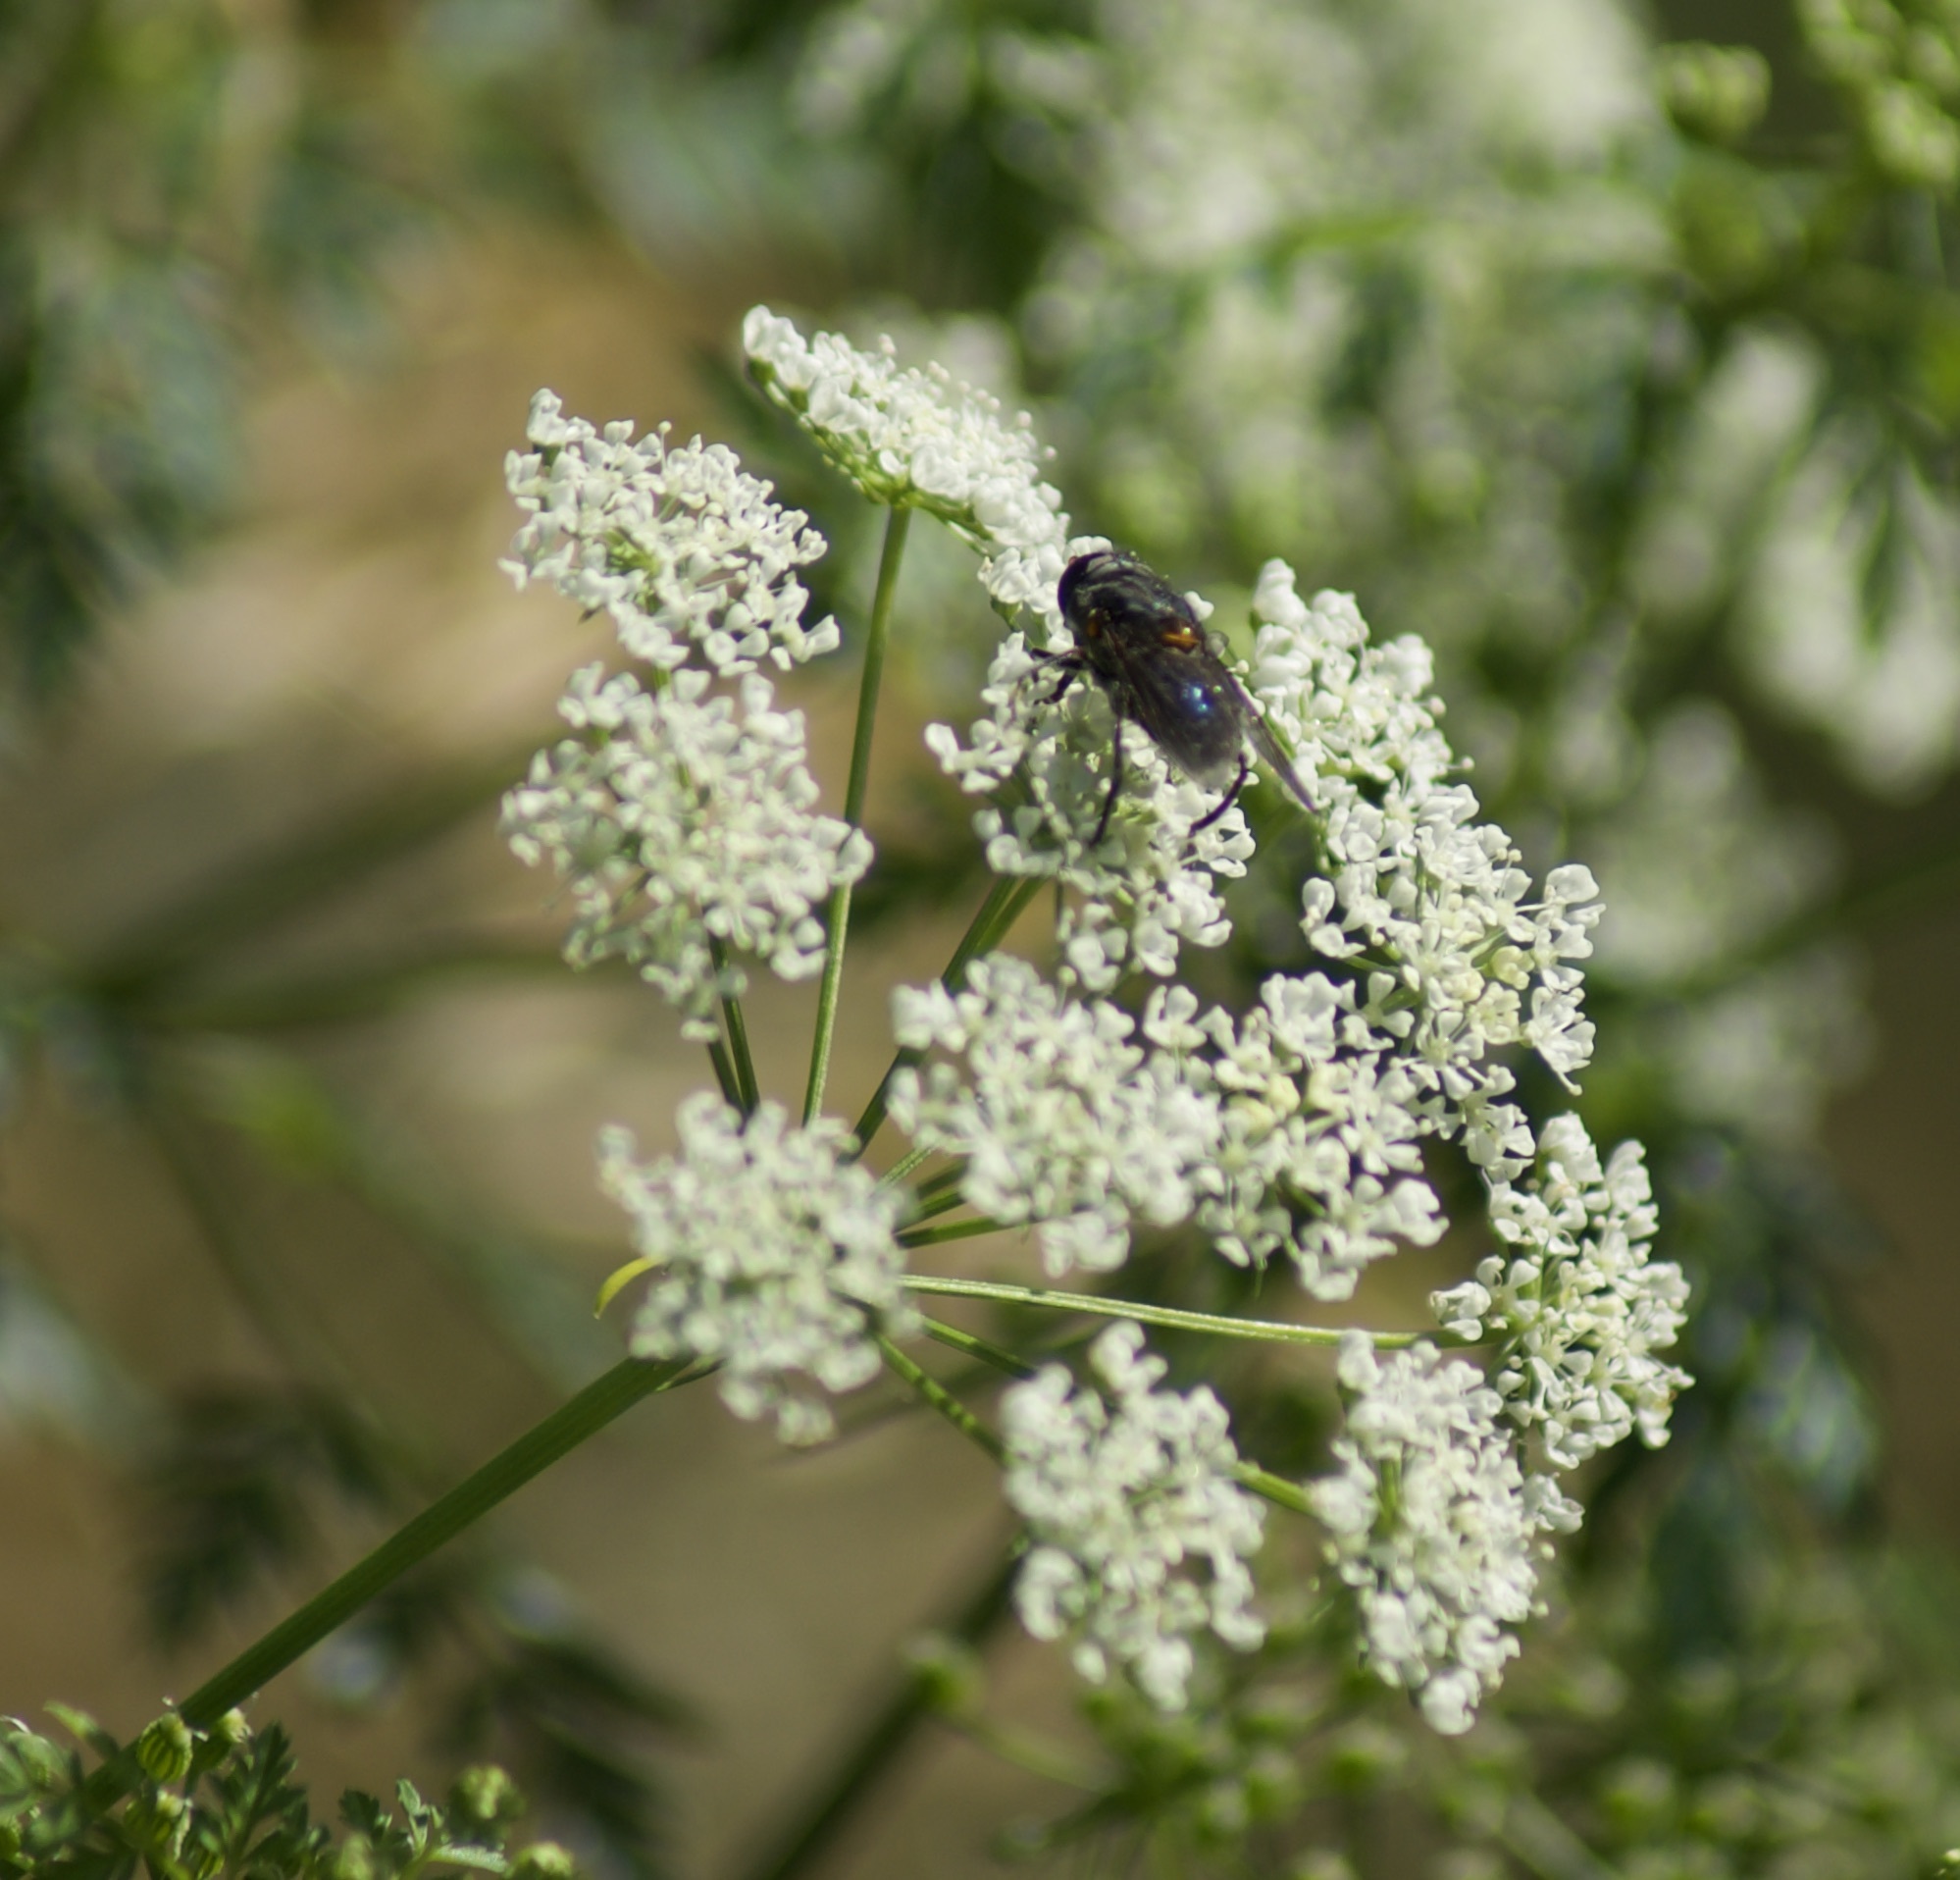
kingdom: Animalia
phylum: Arthropoda
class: Insecta
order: Diptera
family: Syrphidae
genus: Helophilus
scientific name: Helophilus hochstetteri
